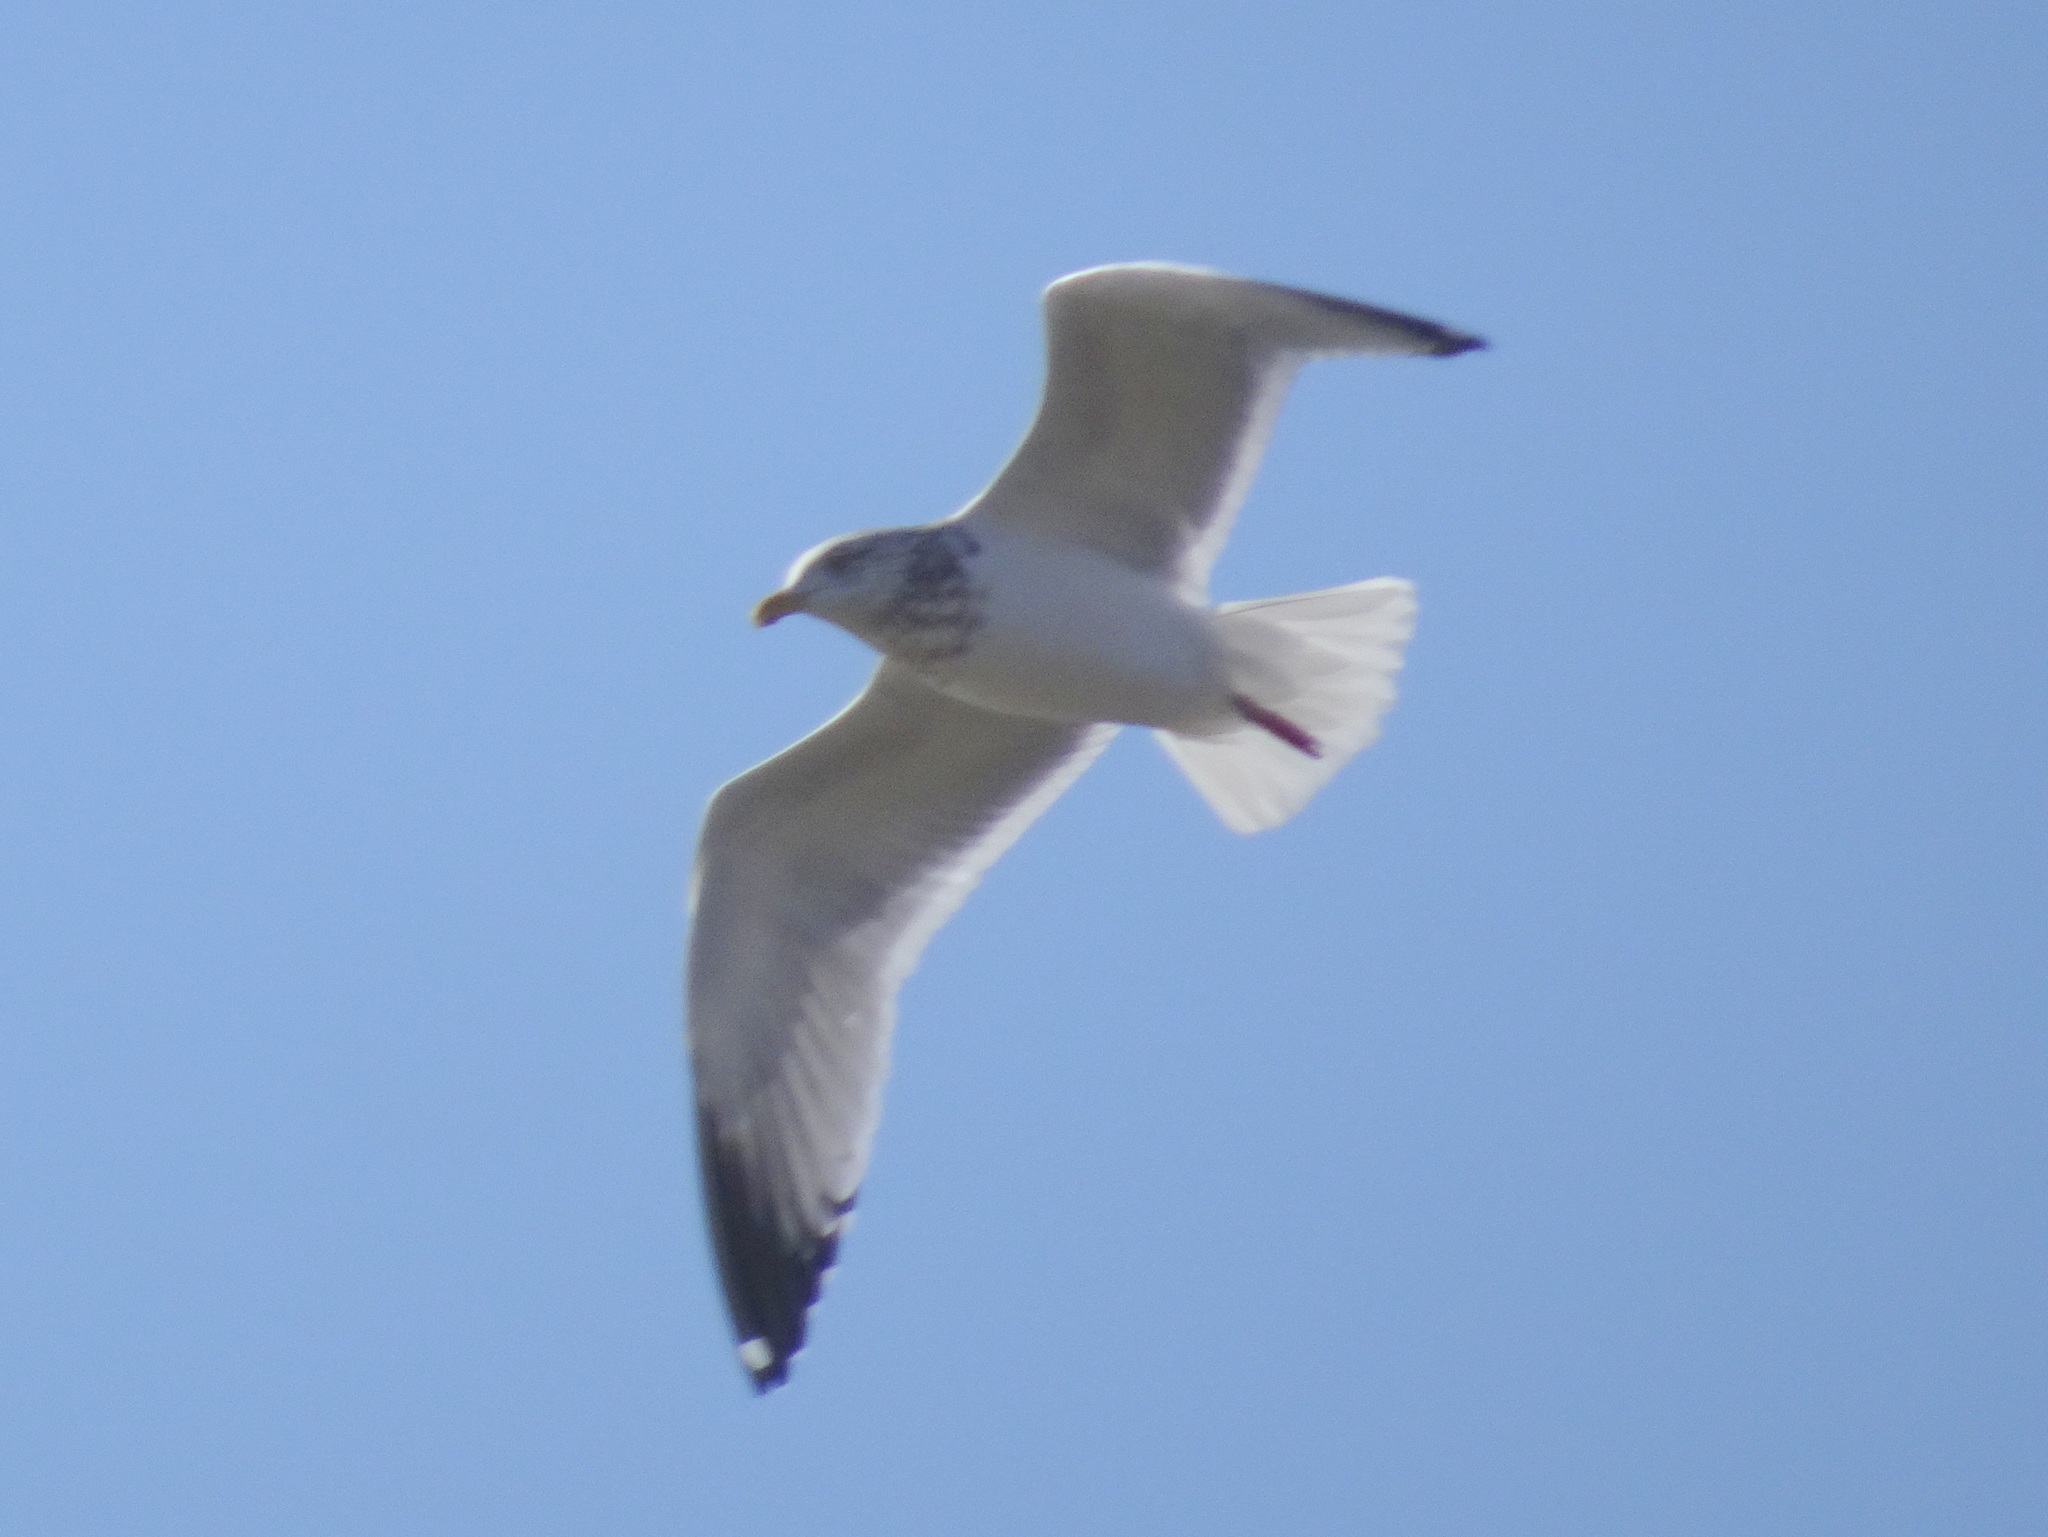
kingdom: Animalia
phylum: Chordata
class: Aves
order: Charadriiformes
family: Laridae
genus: Larus
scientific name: Larus argentatus
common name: Herring gull
